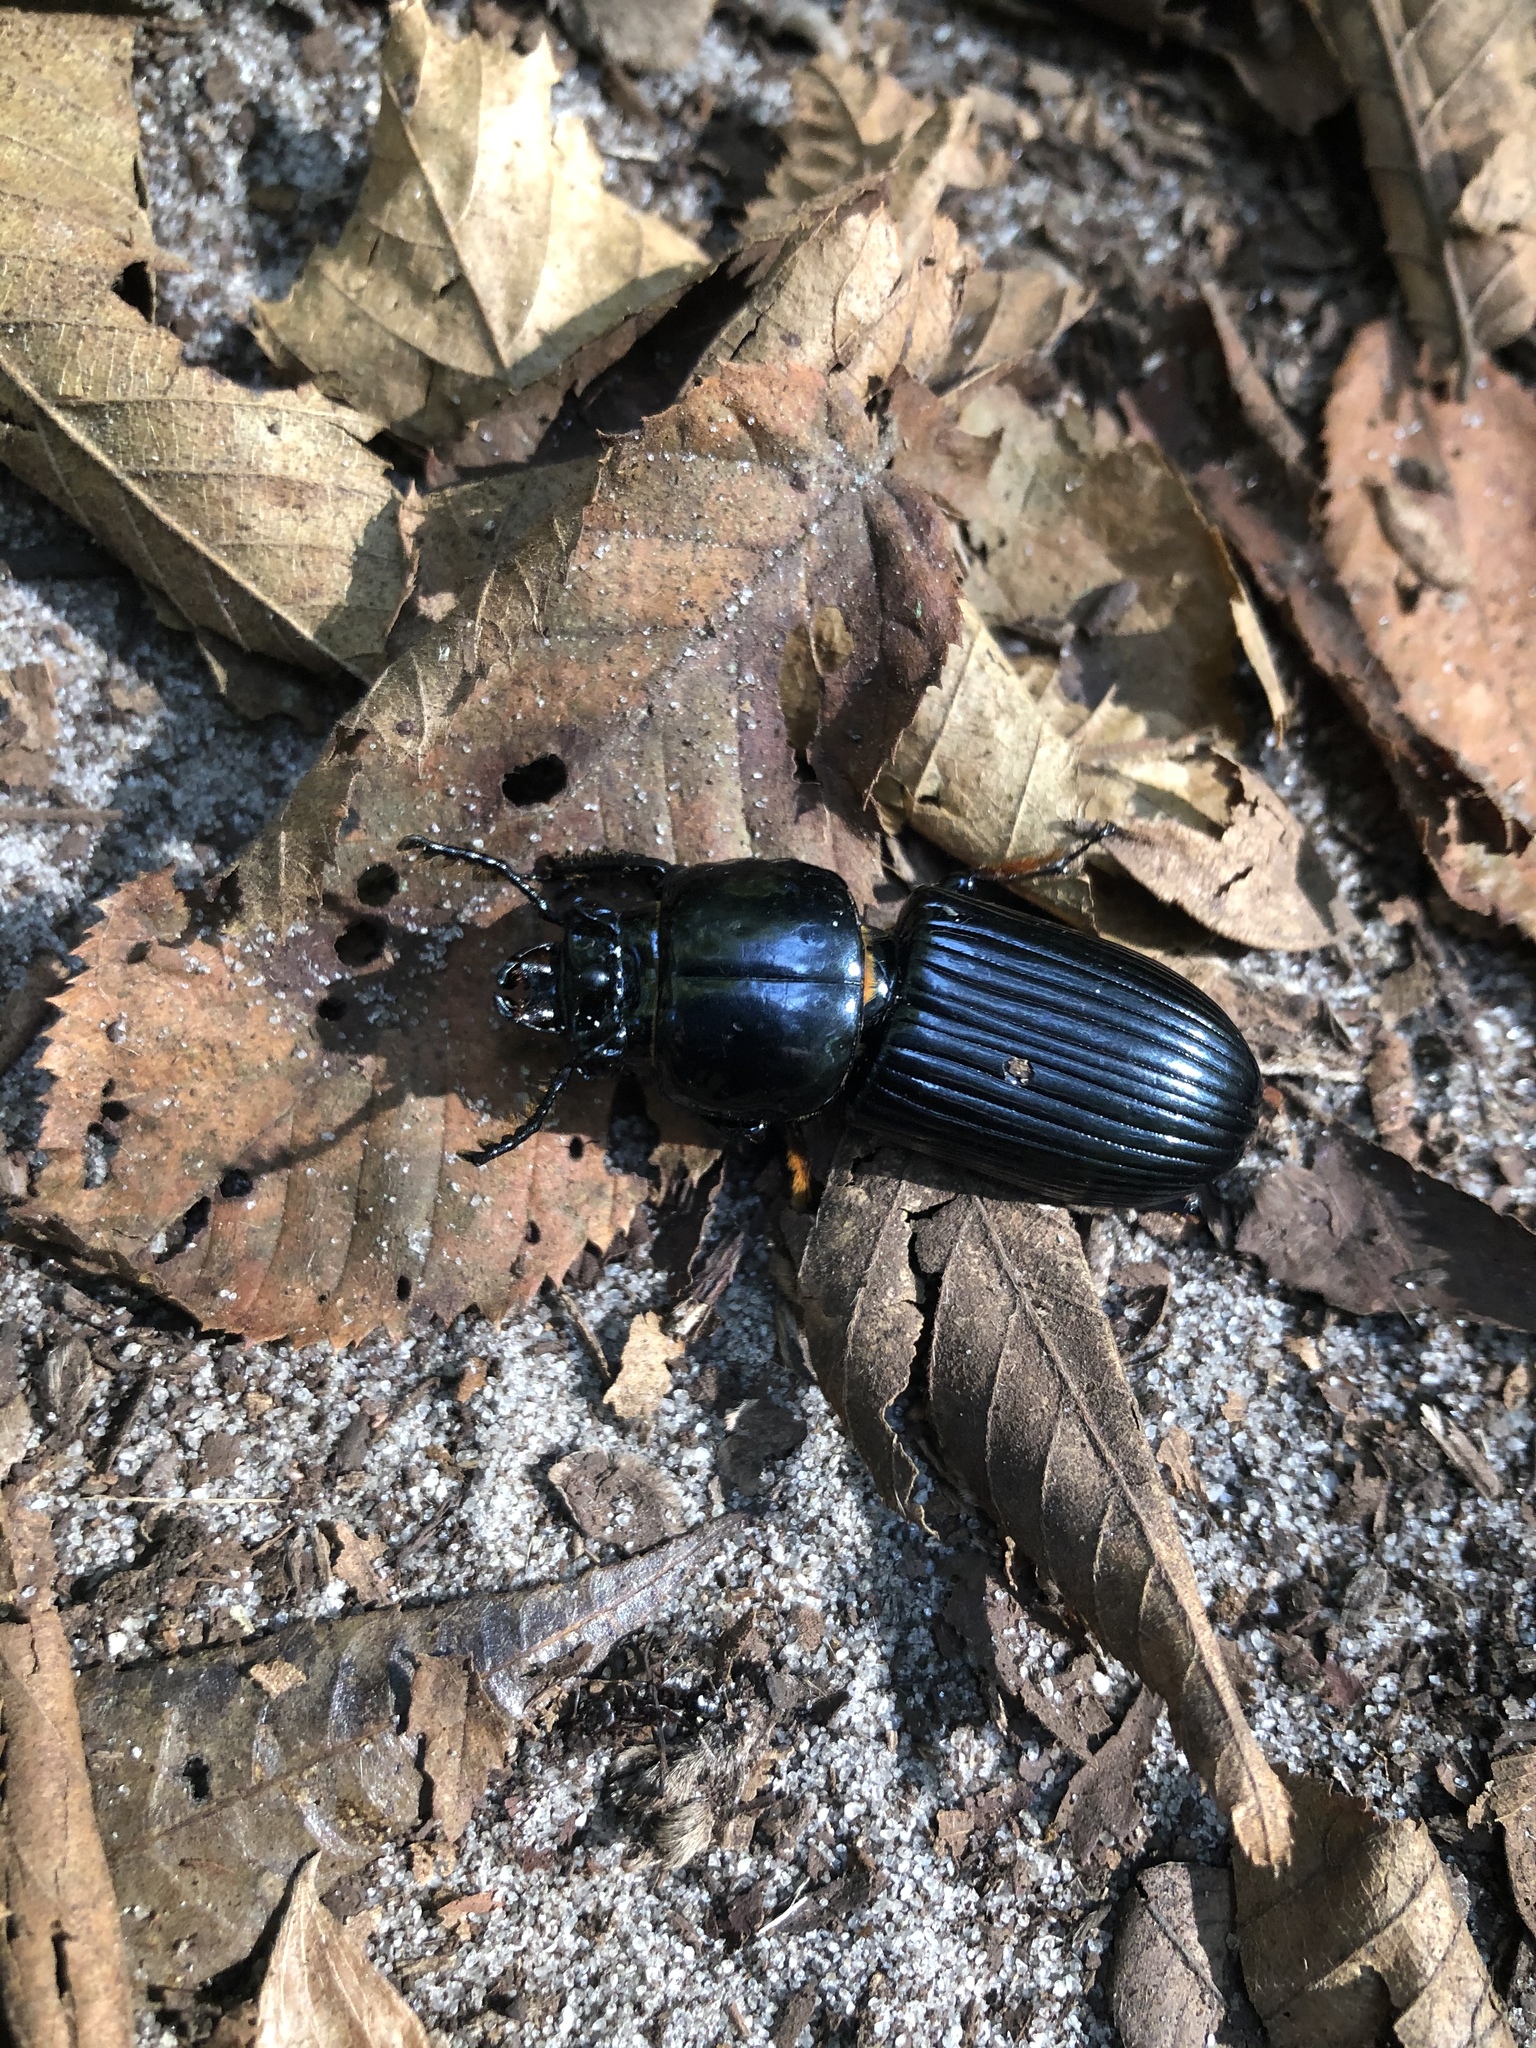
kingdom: Animalia
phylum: Arthropoda
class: Insecta
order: Coleoptera
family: Passalidae
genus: Odontotaenius
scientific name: Odontotaenius disjunctus
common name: Patent leather beetle
